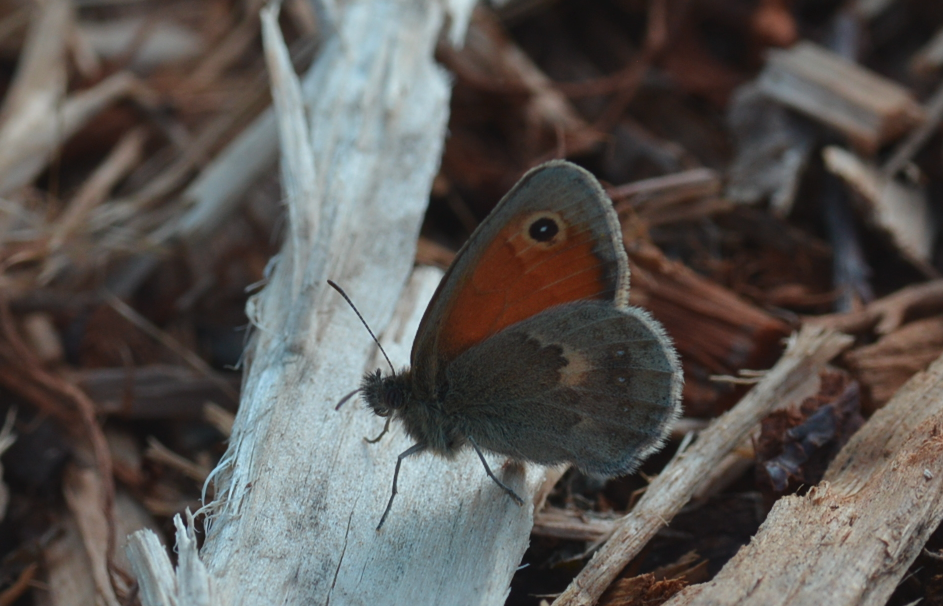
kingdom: Animalia
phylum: Arthropoda
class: Insecta
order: Lepidoptera
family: Nymphalidae
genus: Coenonympha
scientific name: Coenonympha pamphilus
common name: Small heath
